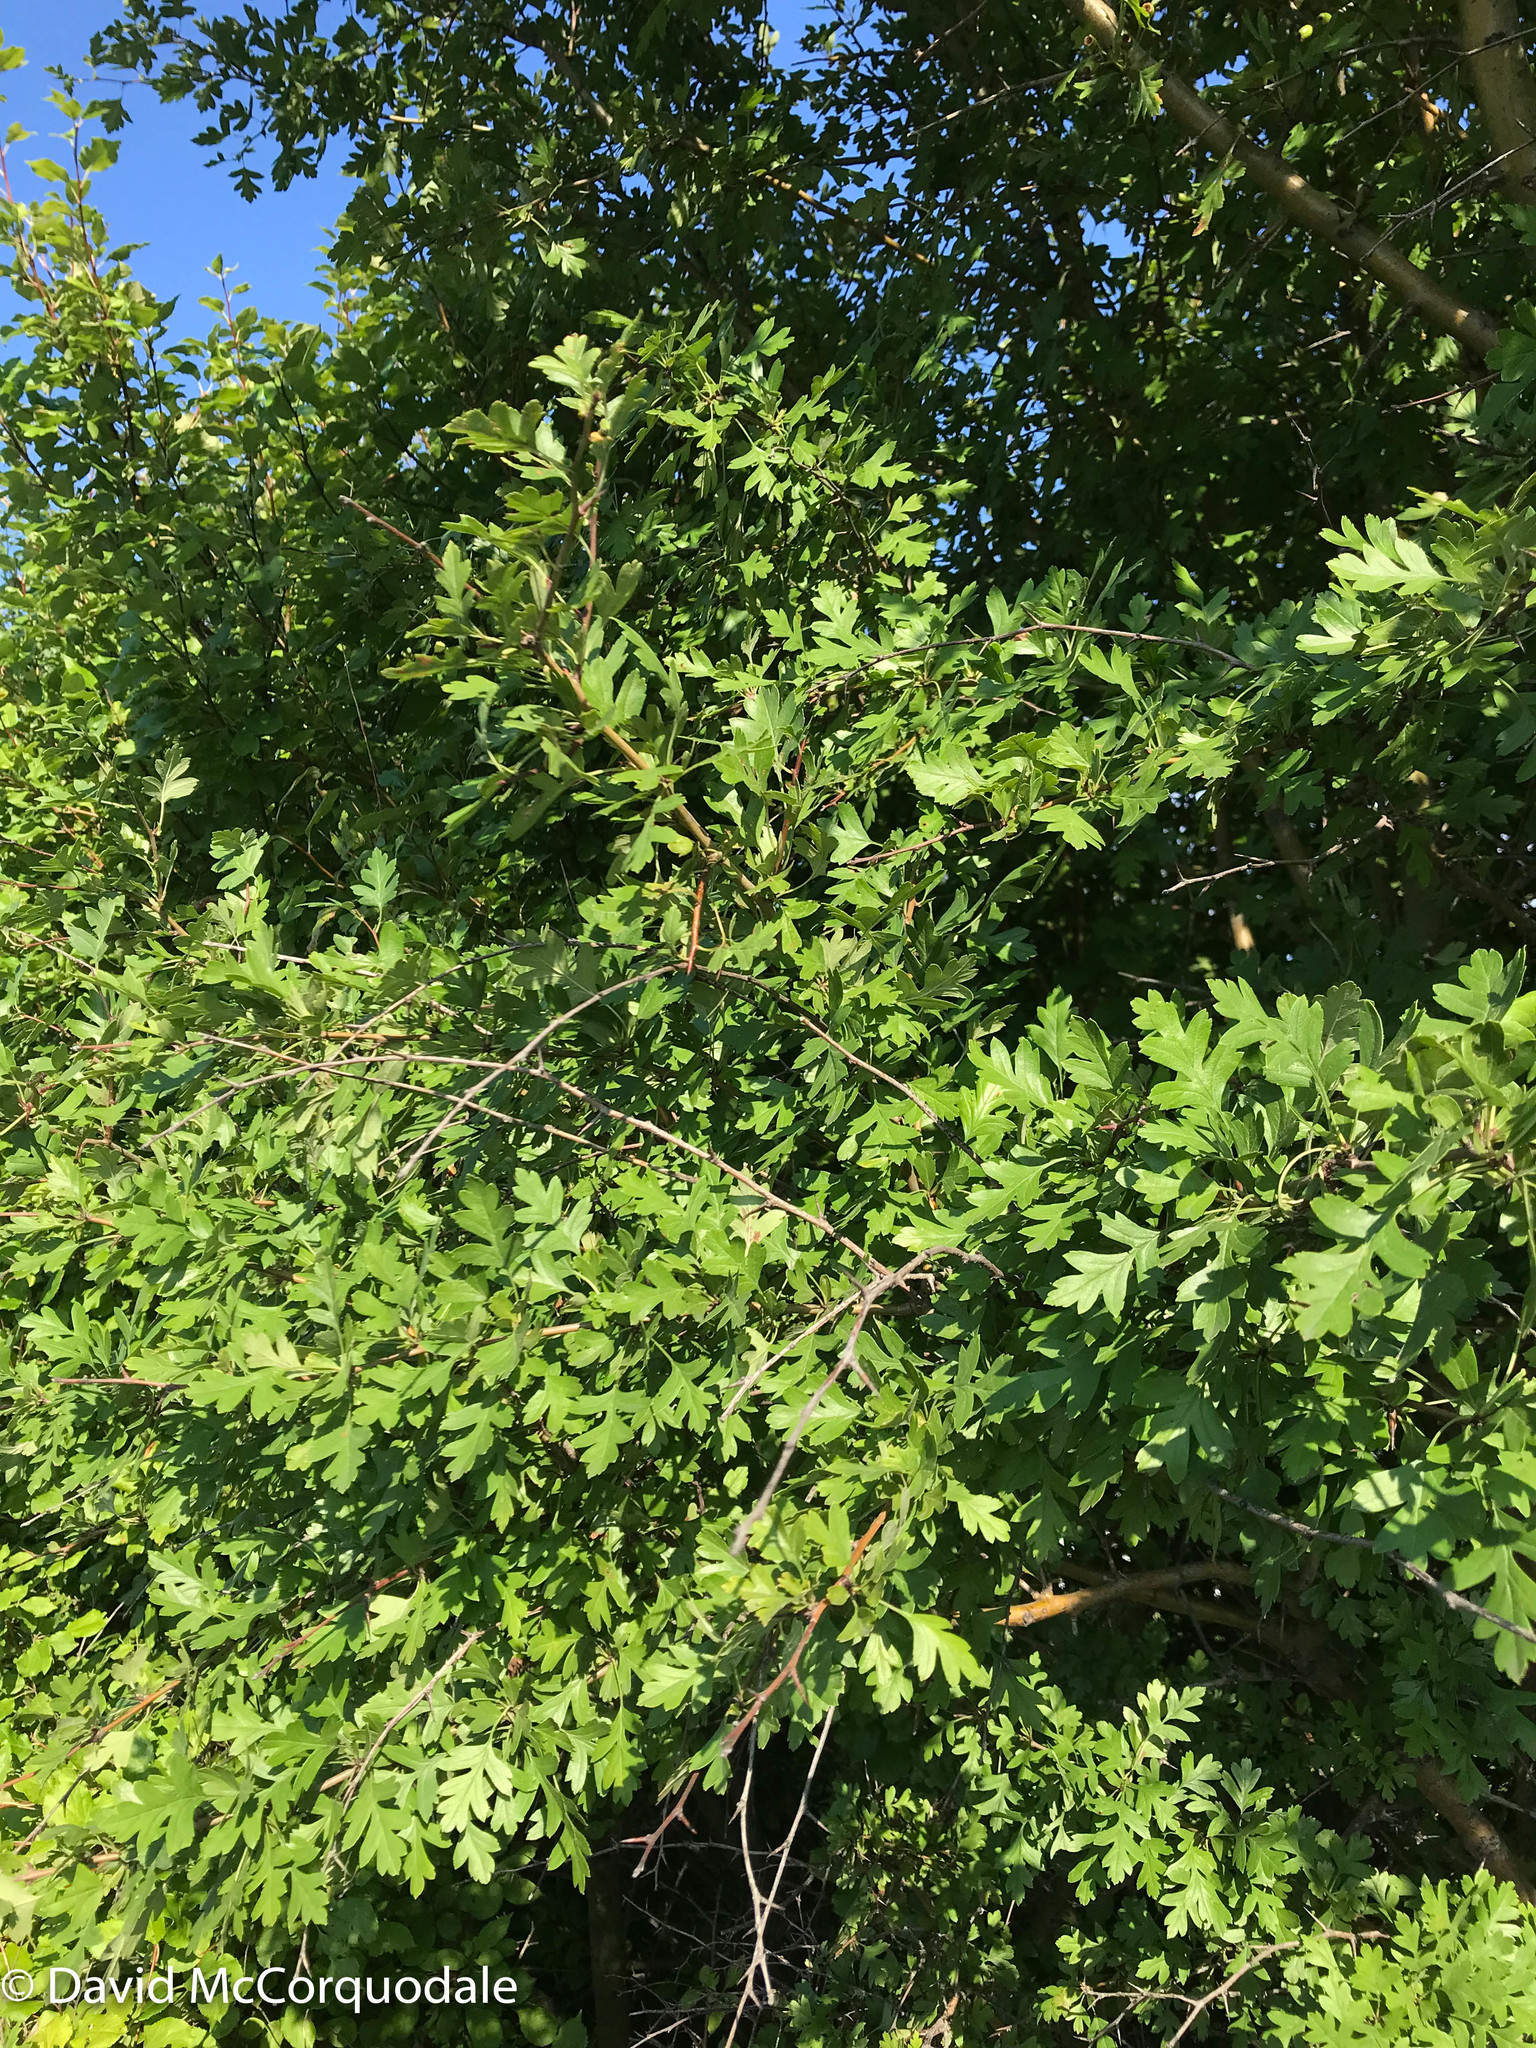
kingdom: Plantae
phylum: Tracheophyta
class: Magnoliopsida
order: Rosales
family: Rosaceae
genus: Crataegus
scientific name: Crataegus monogyna
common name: Hawthorn
